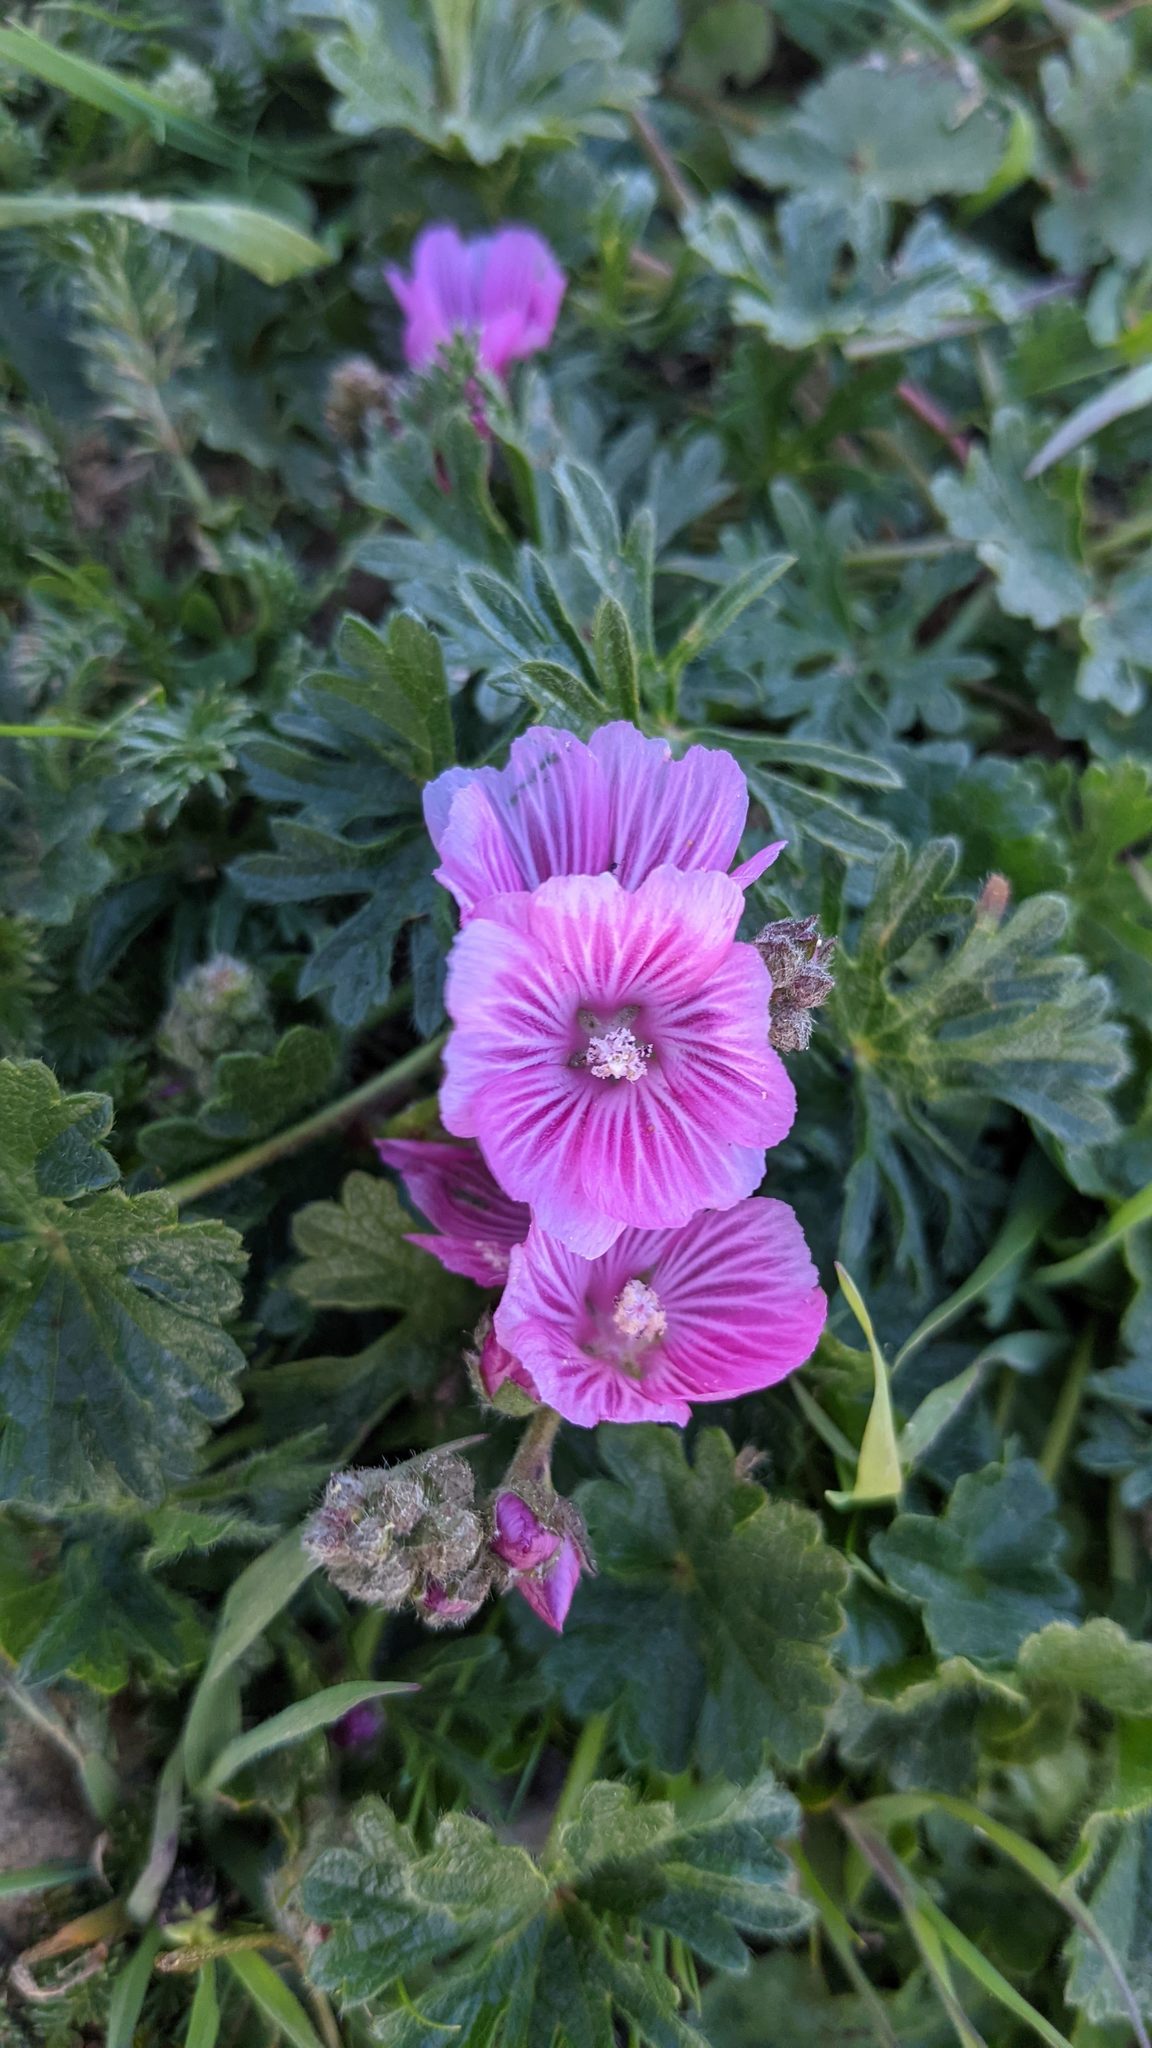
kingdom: Plantae
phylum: Tracheophyta
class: Magnoliopsida
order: Malvales
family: Malvaceae
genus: Sidalcea
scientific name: Sidalcea malviflora
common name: Greek mallow
